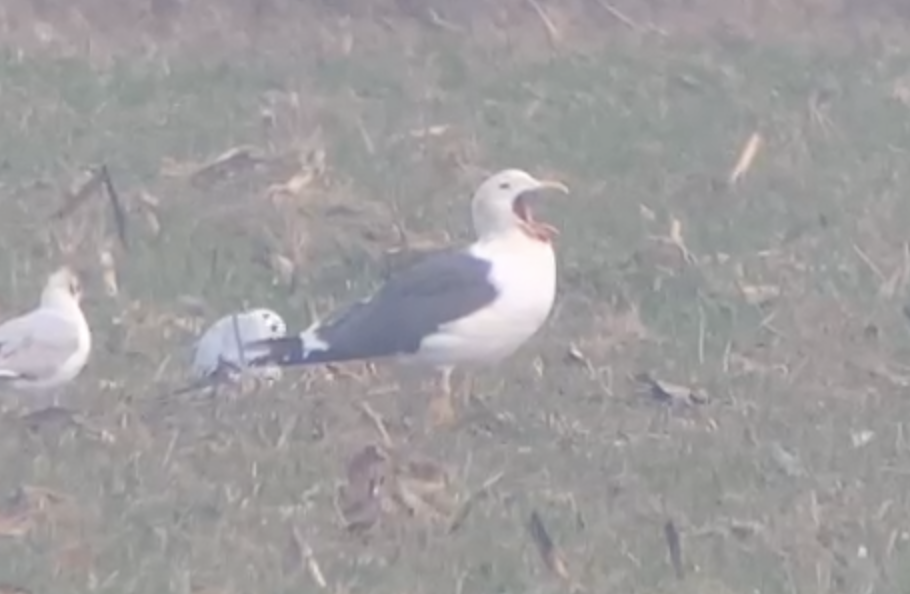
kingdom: Animalia
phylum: Chordata
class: Aves
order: Charadriiformes
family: Laridae
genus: Larus
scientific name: Larus fuscus
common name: Lesser black-backed gull
